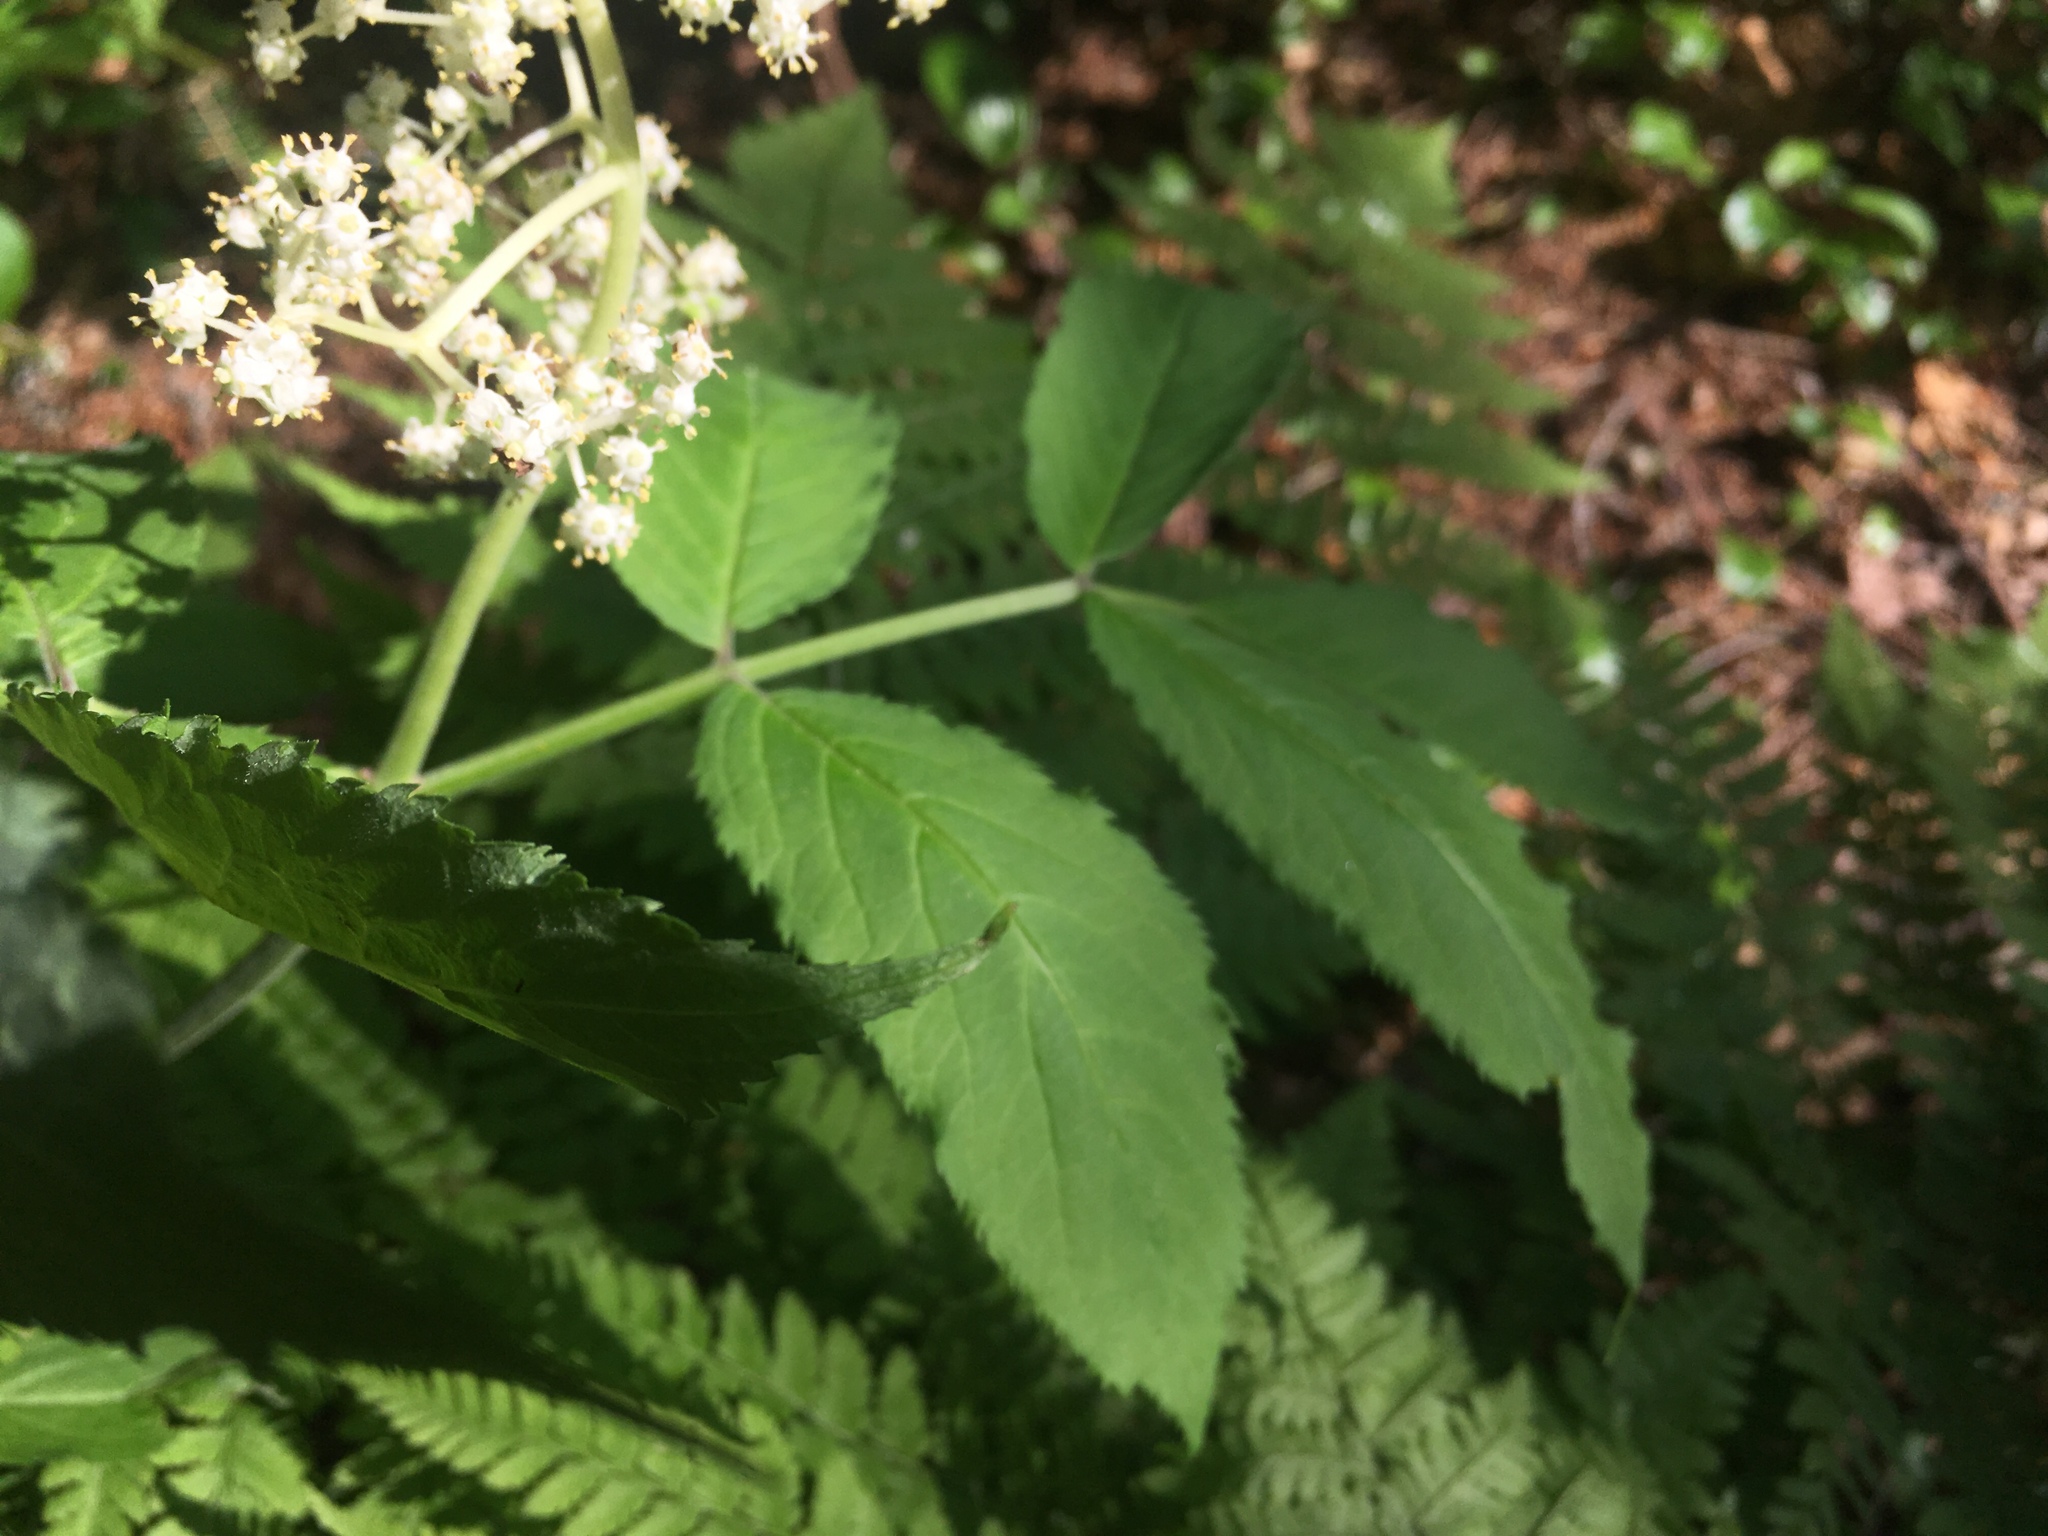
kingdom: Plantae
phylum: Tracheophyta
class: Magnoliopsida
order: Dipsacales
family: Viburnaceae
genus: Sambucus
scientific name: Sambucus racemosa
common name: Red-berried elder
